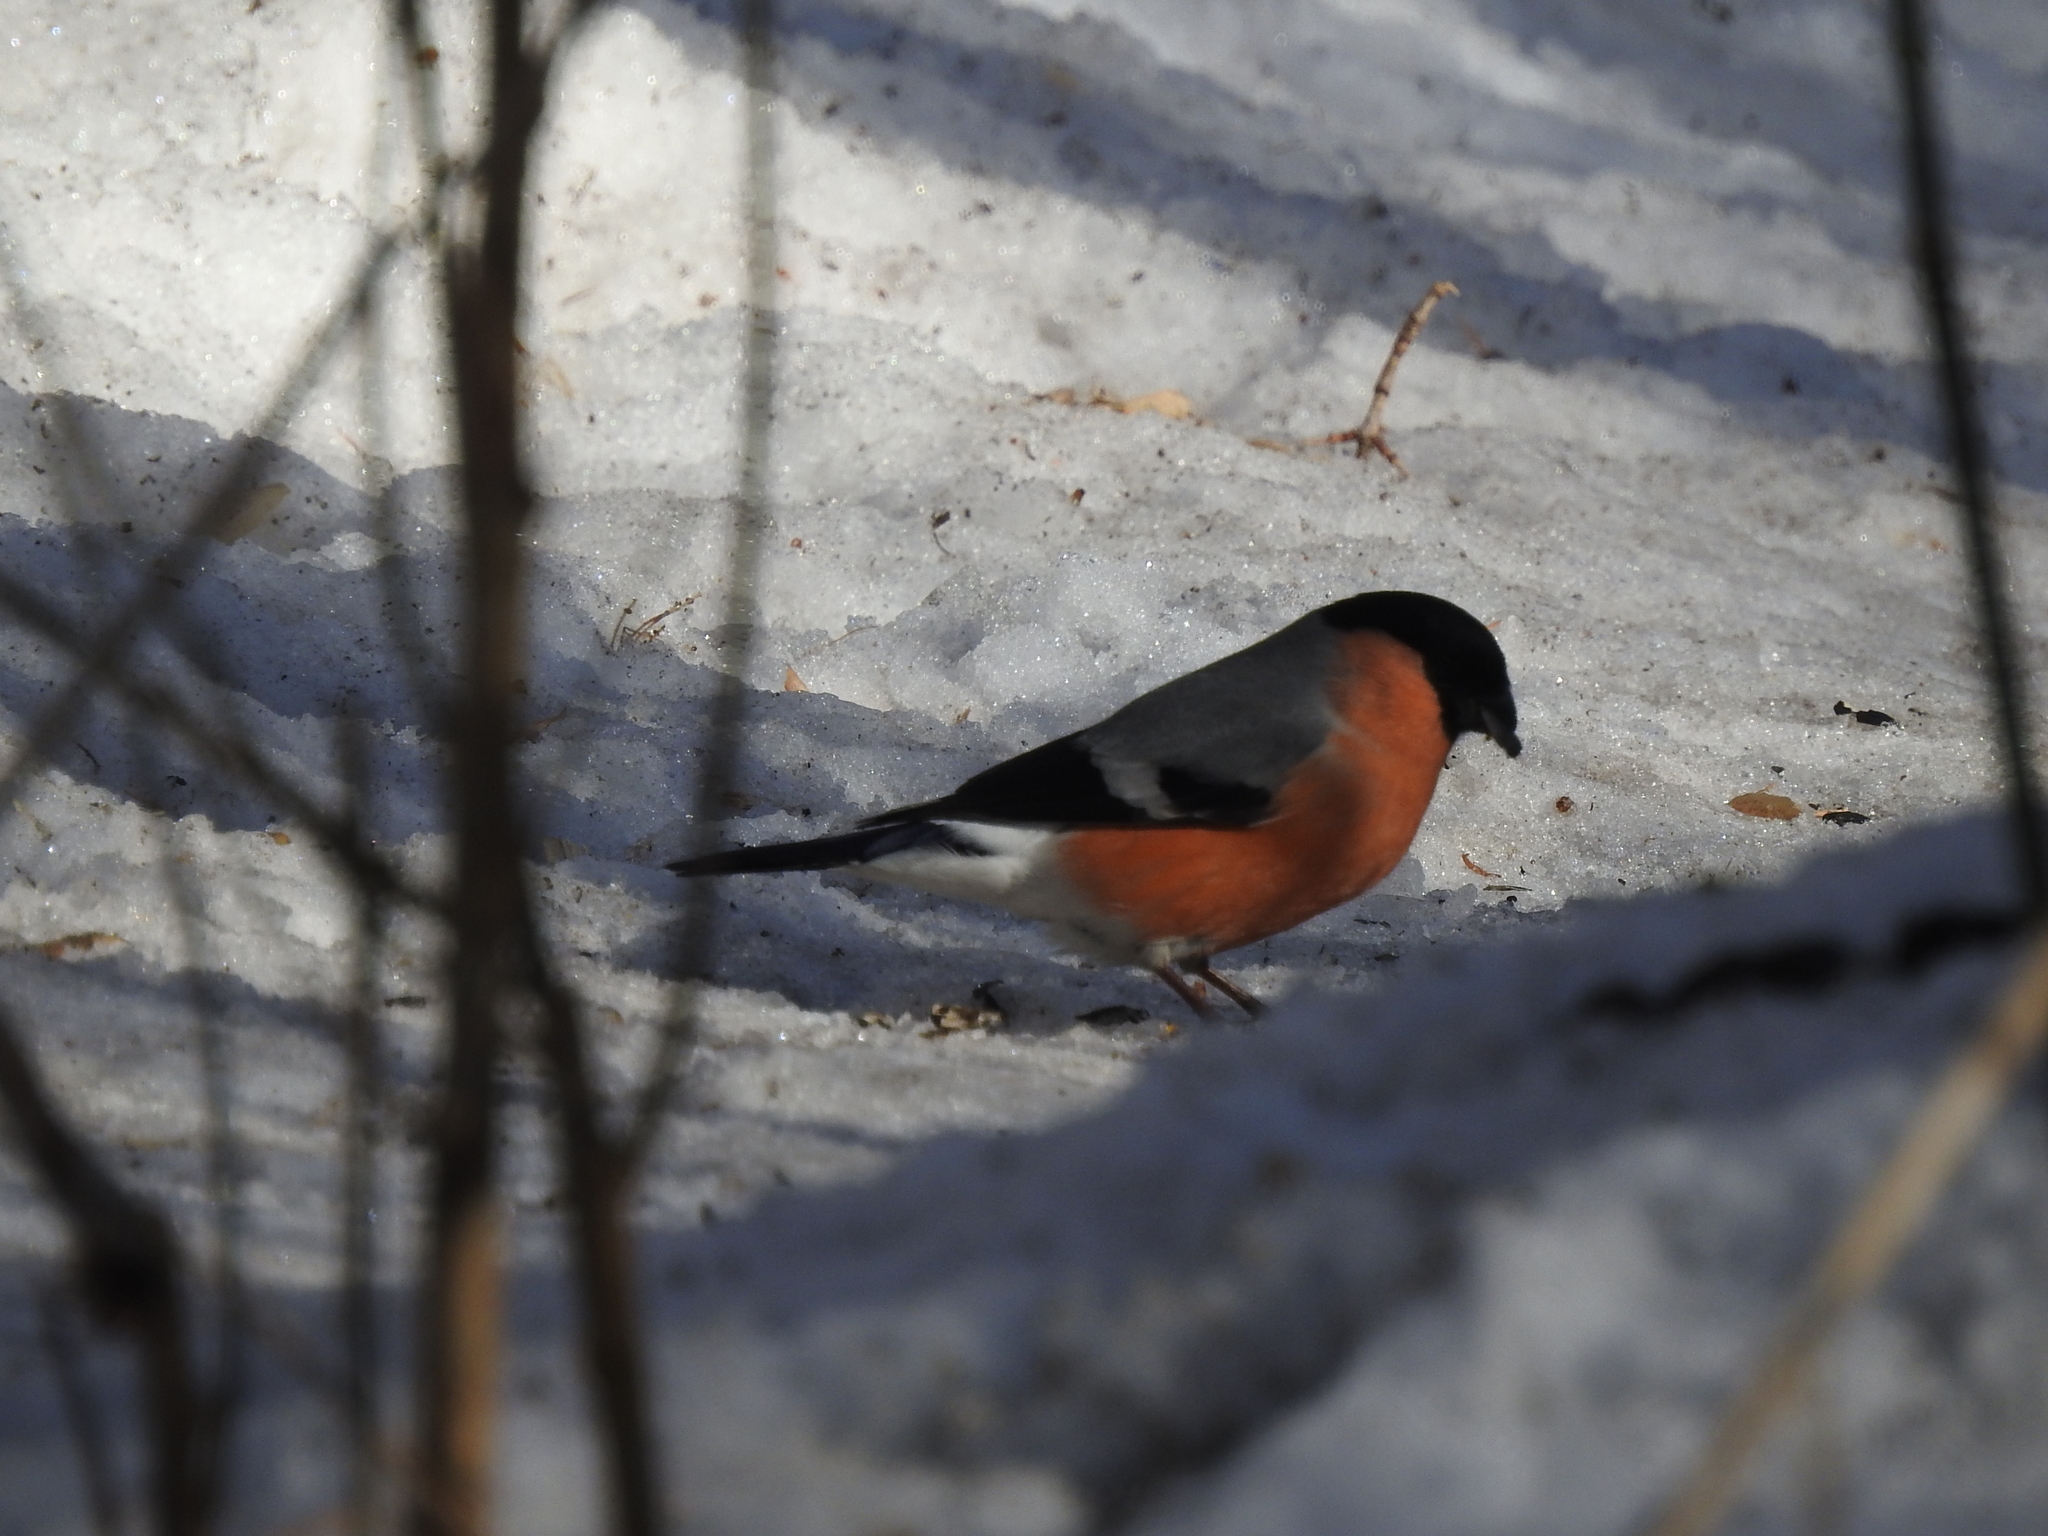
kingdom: Animalia
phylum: Chordata
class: Aves
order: Passeriformes
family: Fringillidae
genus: Pyrrhula
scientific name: Pyrrhula pyrrhula
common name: Eurasian bullfinch
